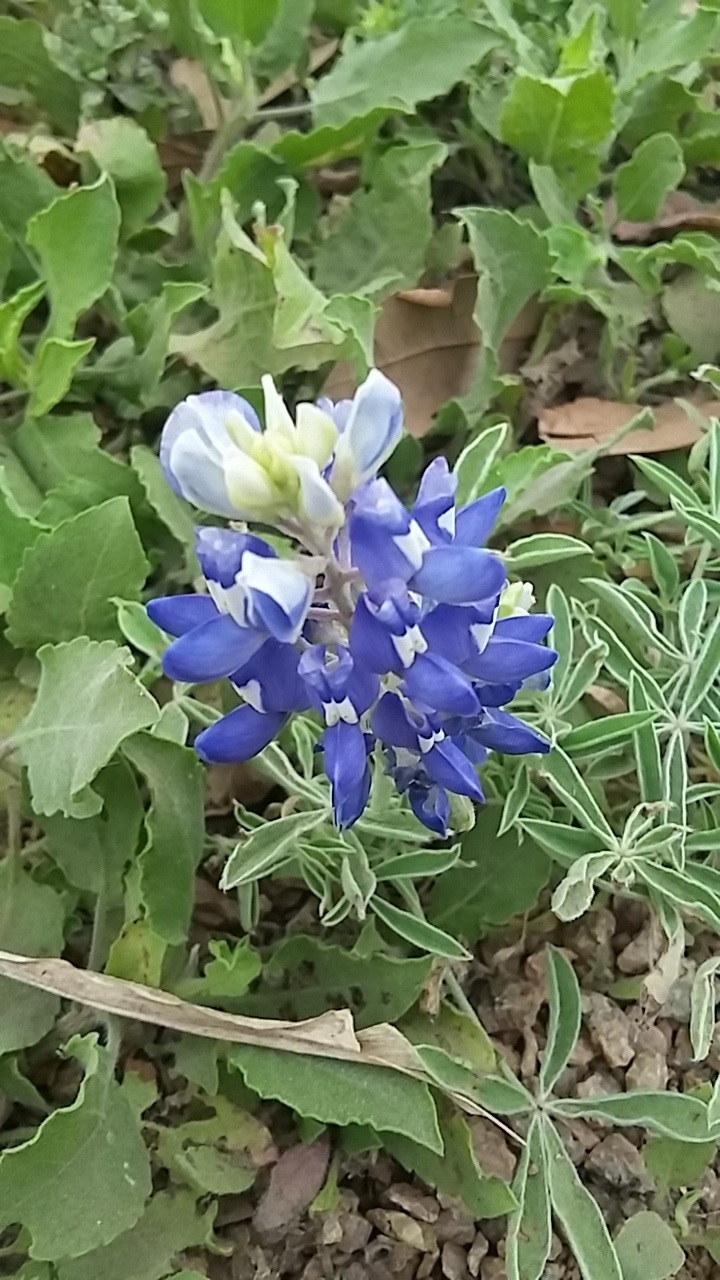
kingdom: Plantae
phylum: Tracheophyta
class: Magnoliopsida
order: Fabales
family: Fabaceae
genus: Lupinus
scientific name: Lupinus texensis
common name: Texas bluebonnet
